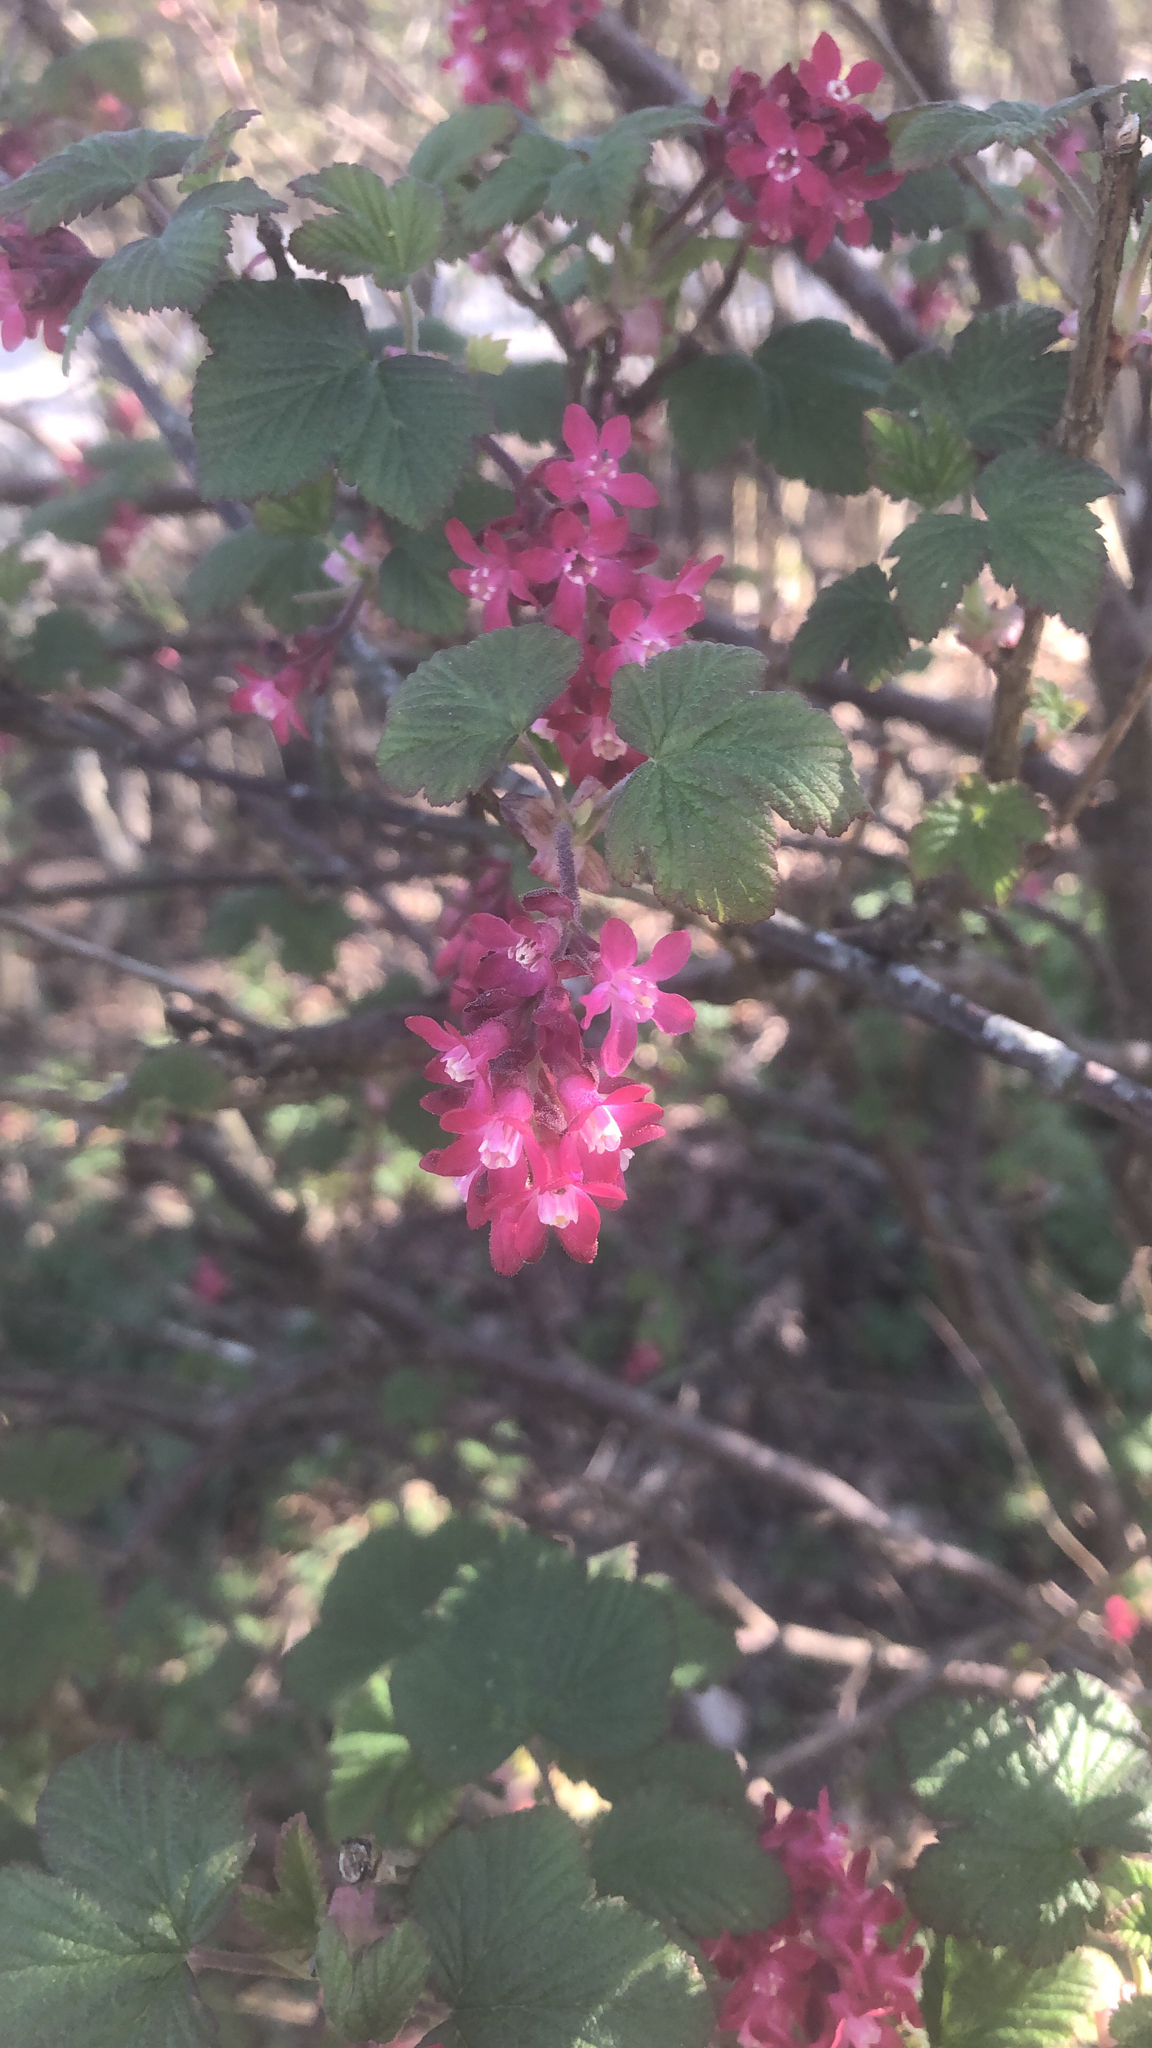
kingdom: Plantae
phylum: Tracheophyta
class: Magnoliopsida
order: Saxifragales
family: Grossulariaceae
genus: Ribes
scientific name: Ribes sanguineum
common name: Flowering currant
